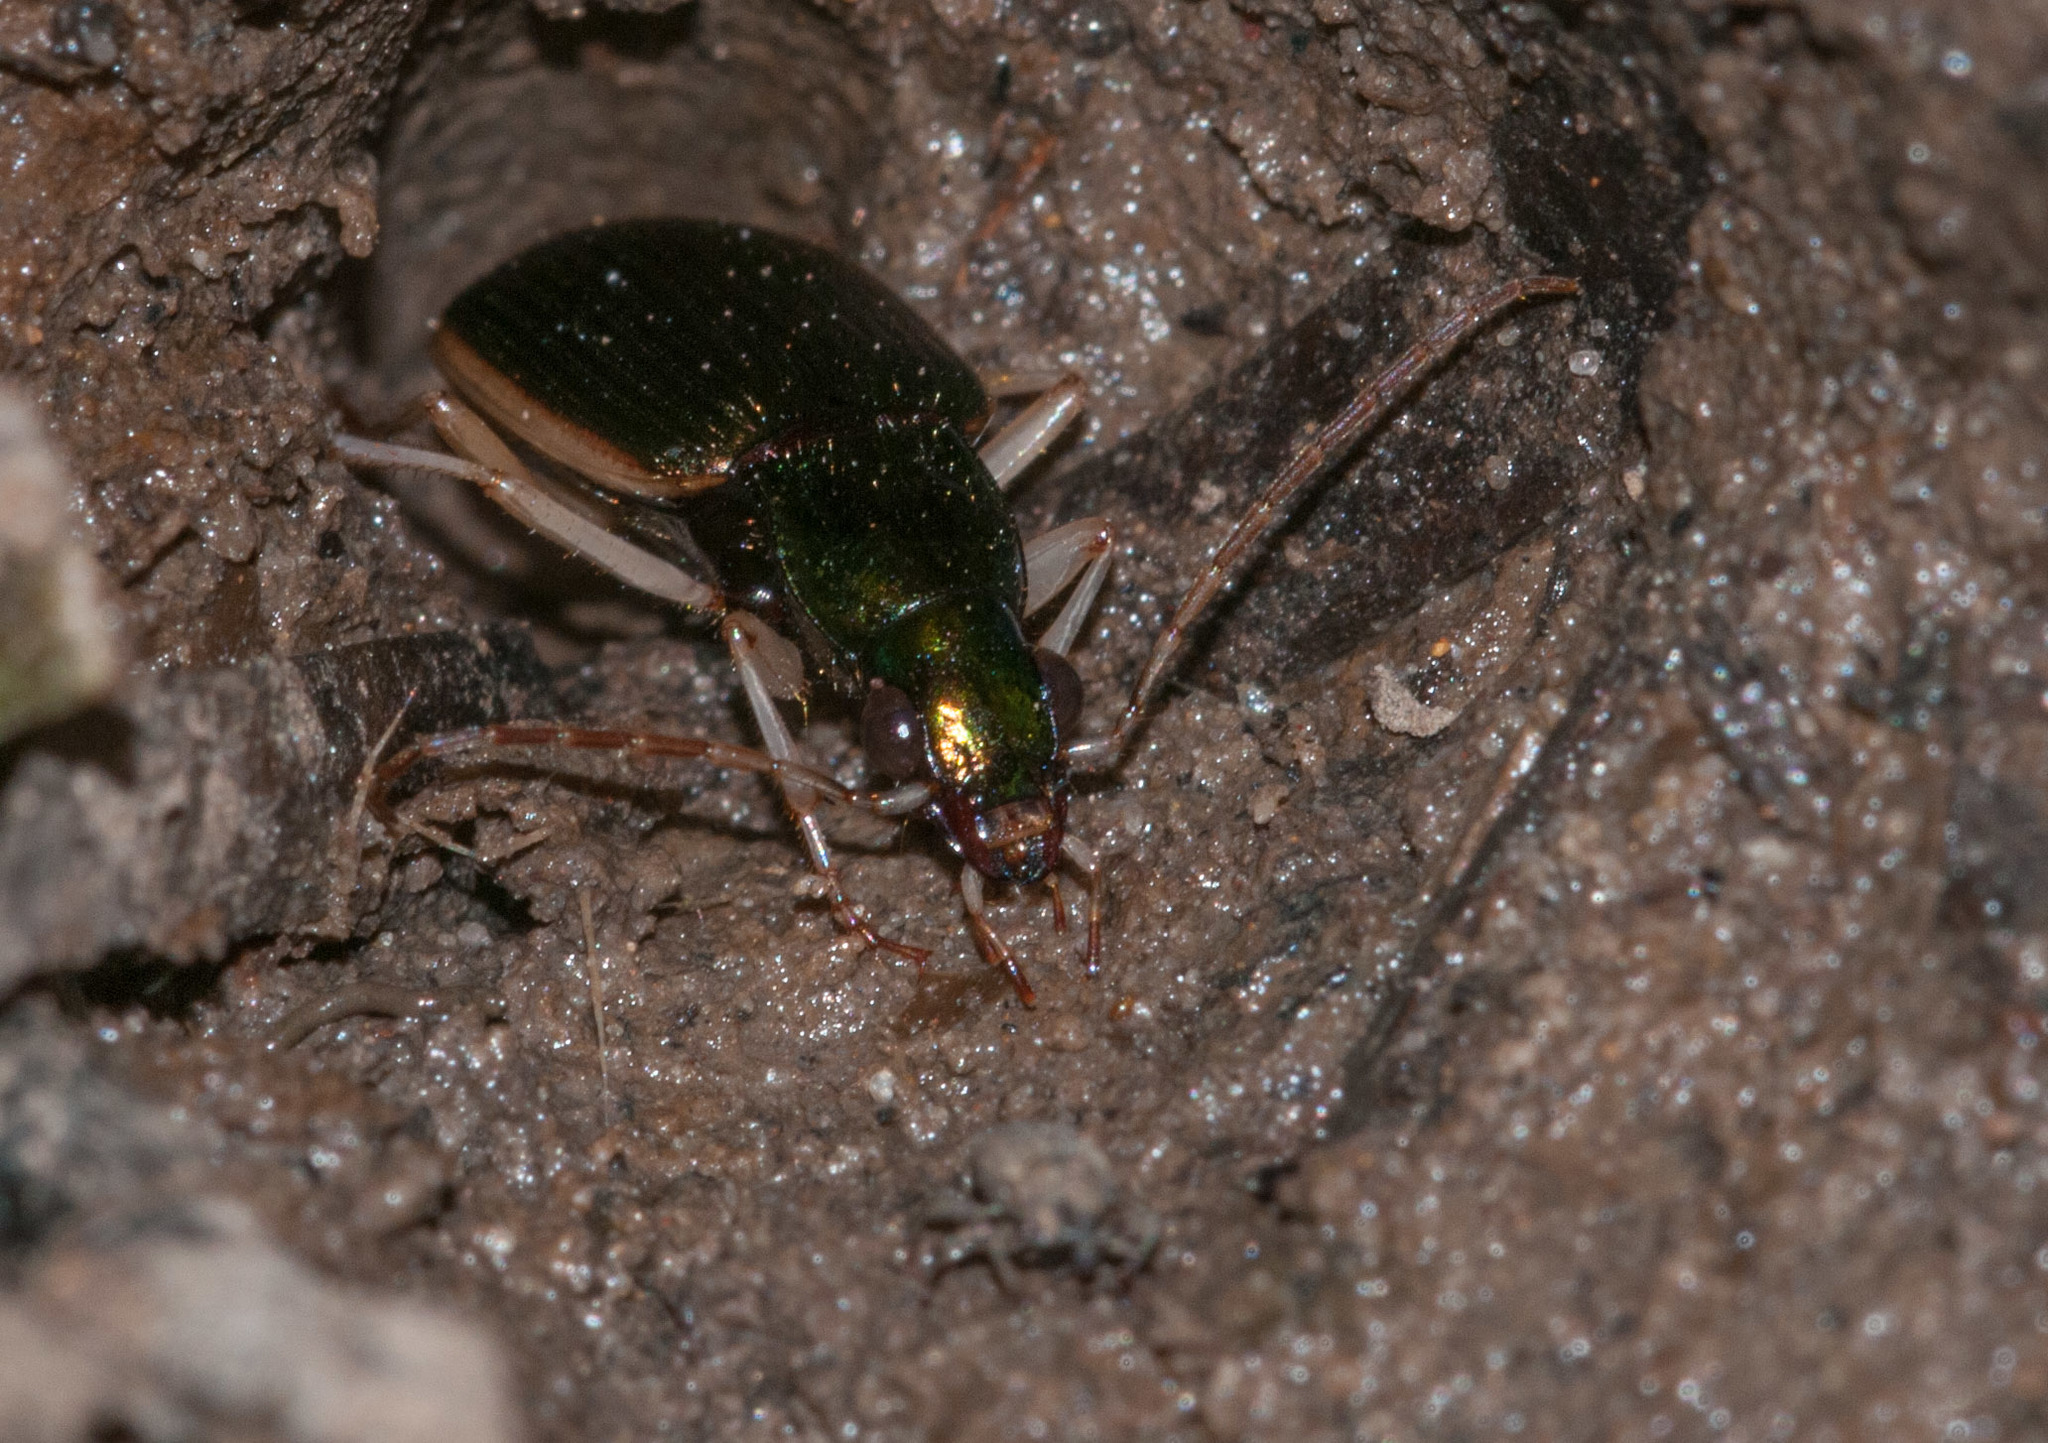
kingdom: Animalia
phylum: Arthropoda
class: Insecta
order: Coleoptera
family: Carabidae
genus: Chlaenius
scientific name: Chlaenius darlingensis
